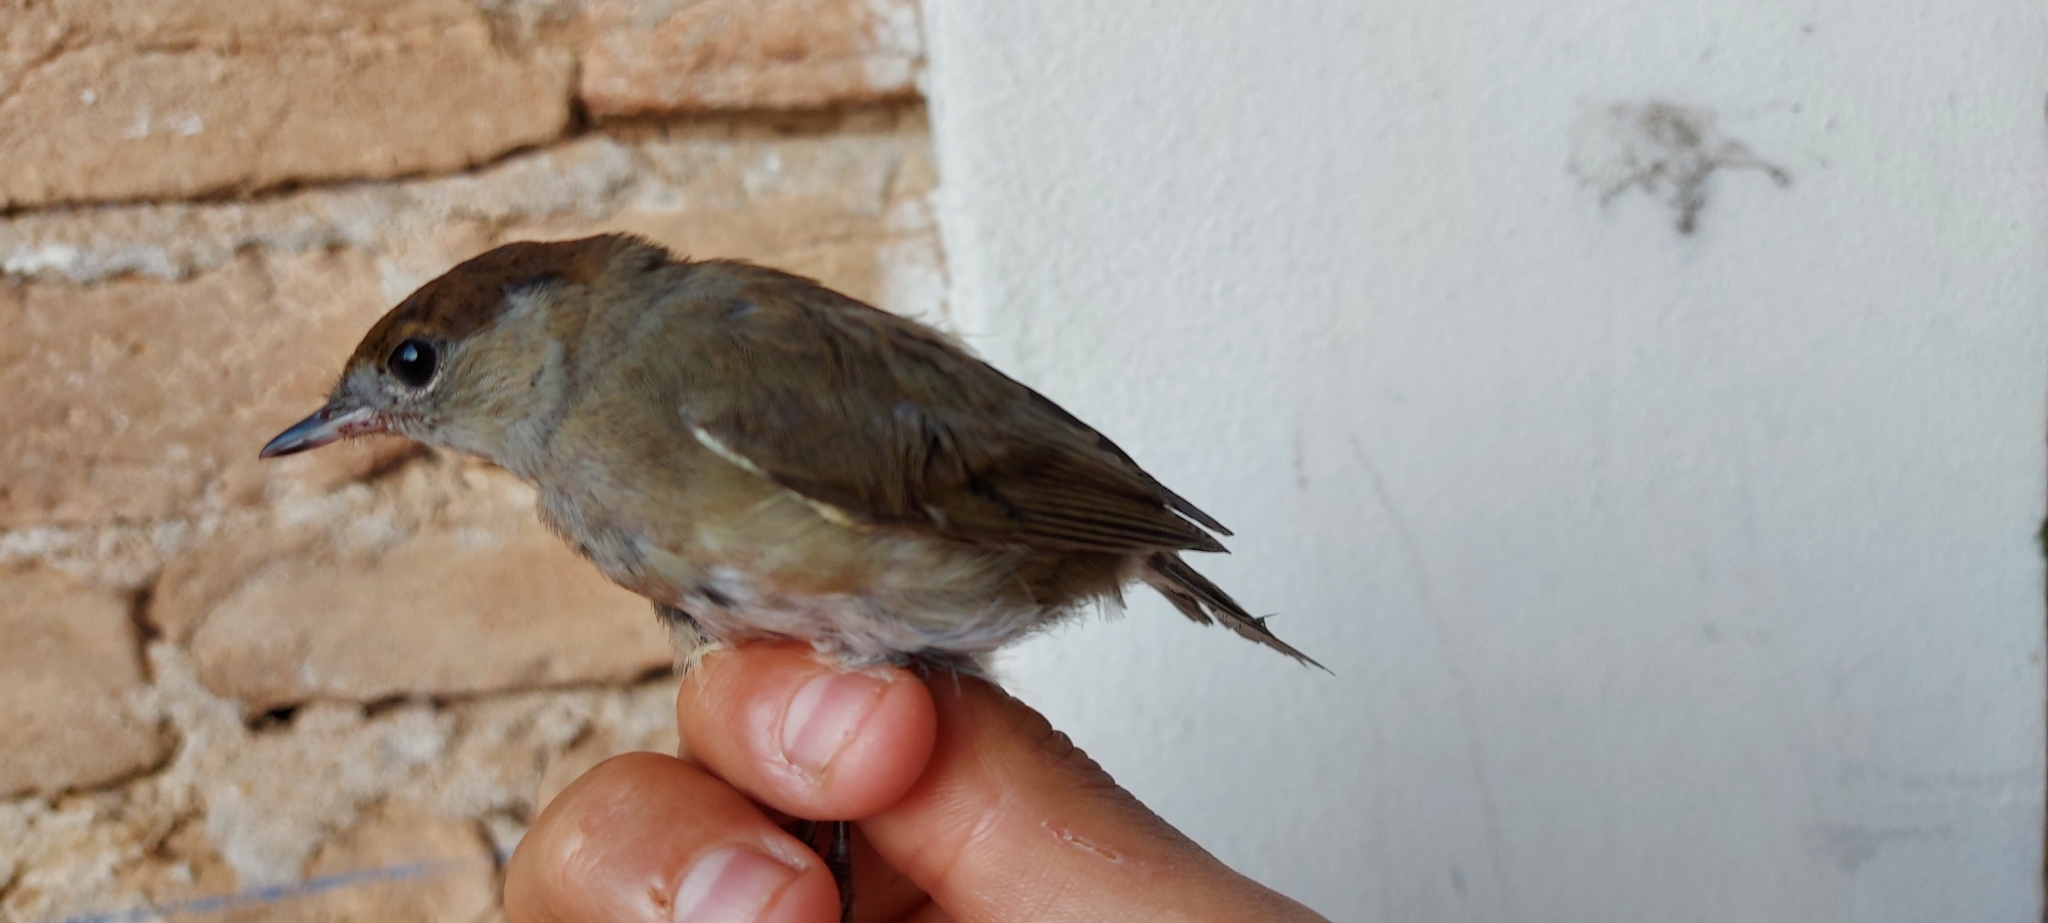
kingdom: Animalia
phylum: Chordata
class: Aves
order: Passeriformes
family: Sylviidae
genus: Sylvia
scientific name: Sylvia atricapilla
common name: Eurasian blackcap
